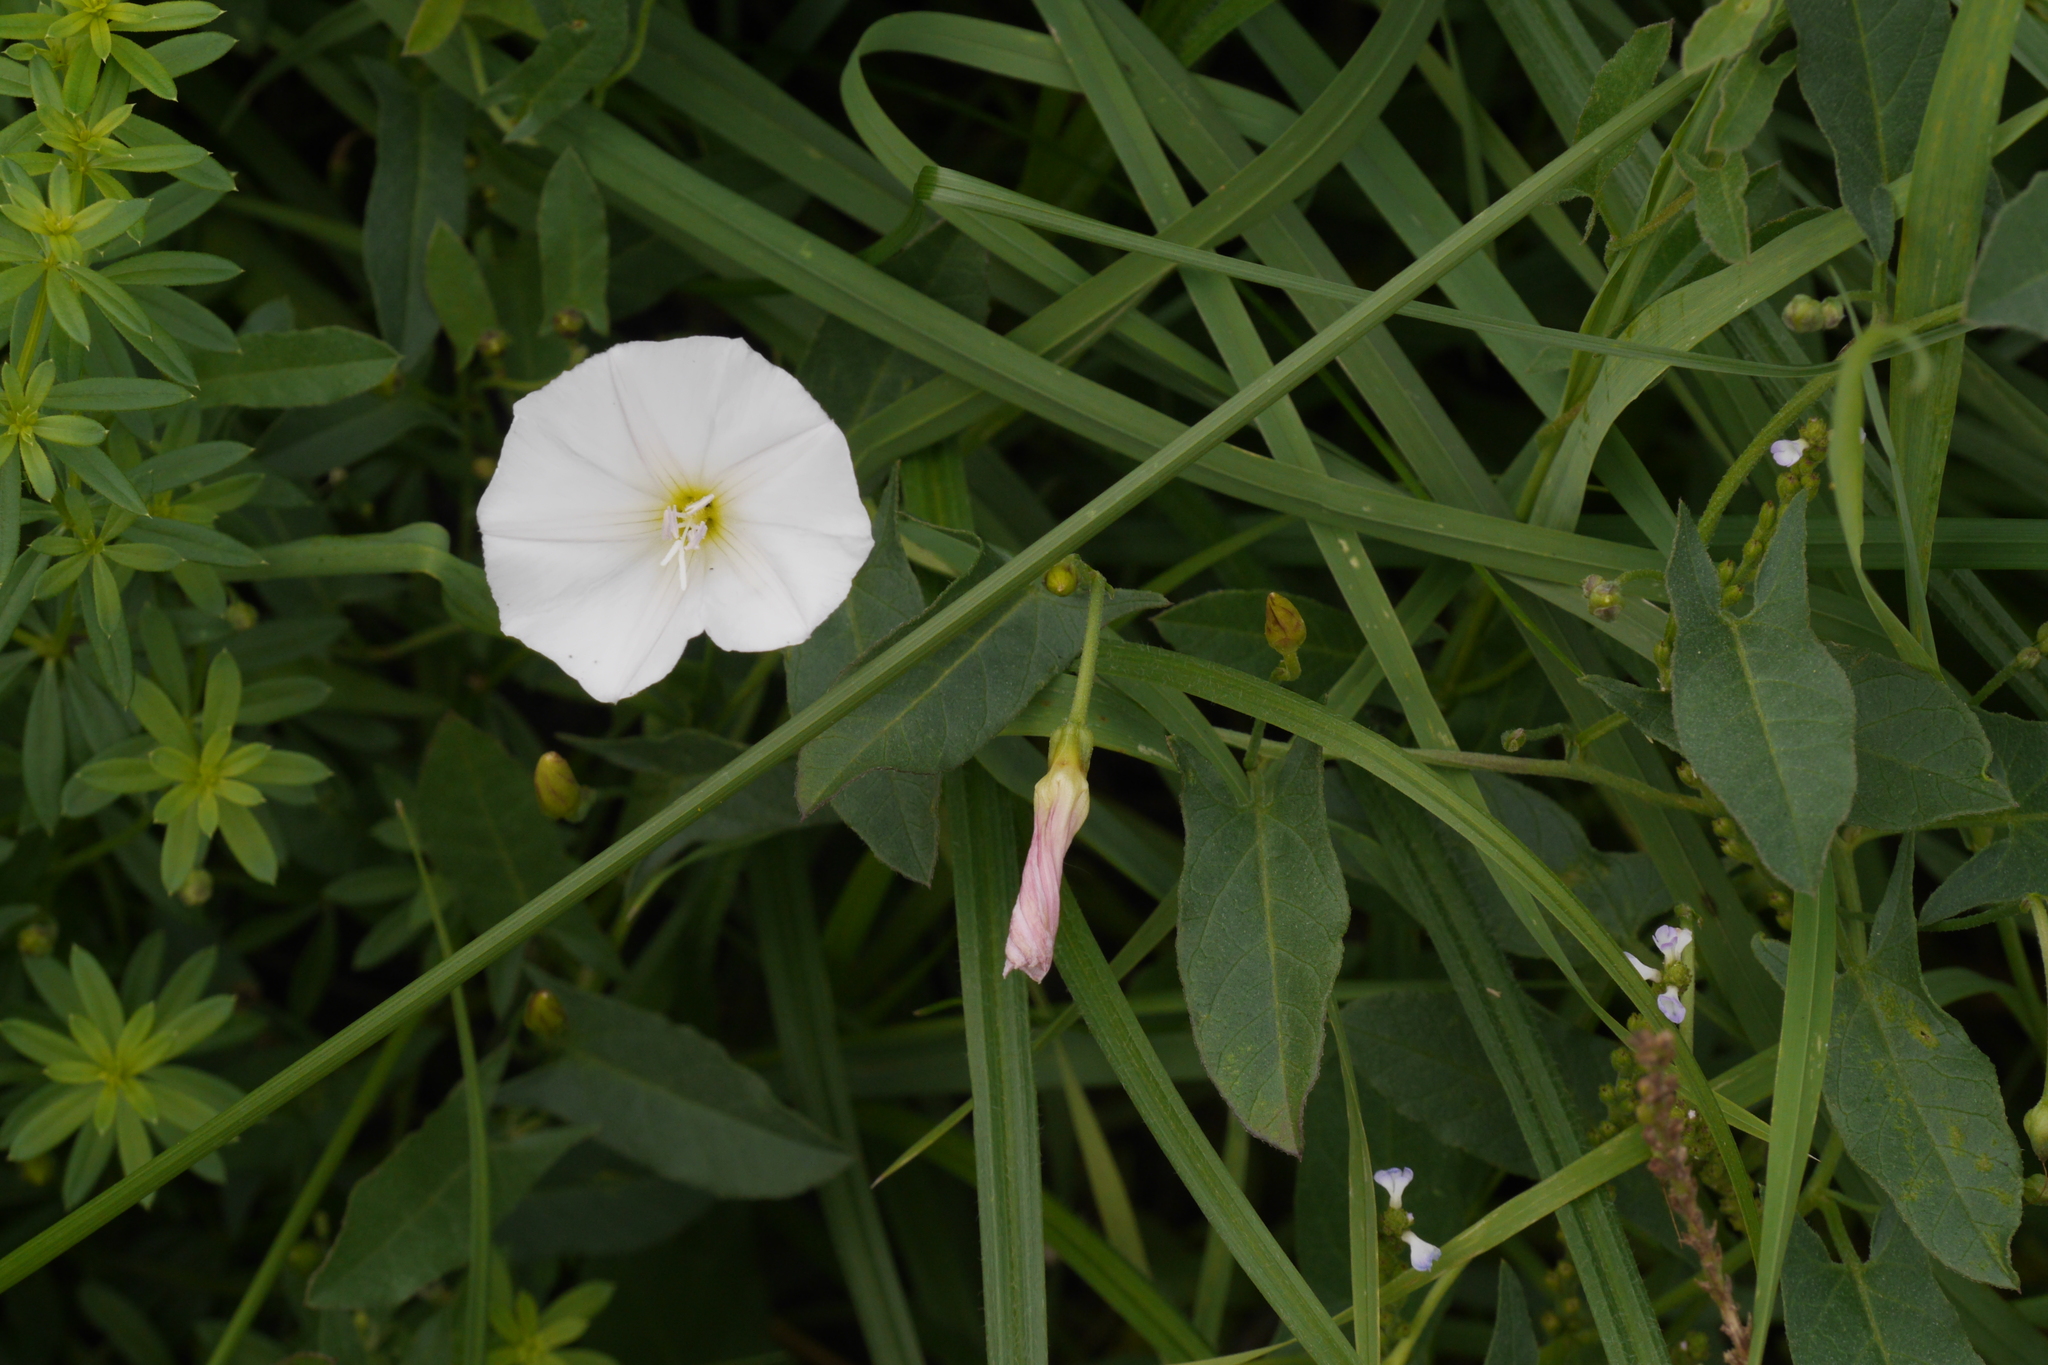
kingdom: Plantae
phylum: Tracheophyta
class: Magnoliopsida
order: Solanales
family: Convolvulaceae
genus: Convolvulus
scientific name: Convolvulus arvensis
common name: Field bindweed
